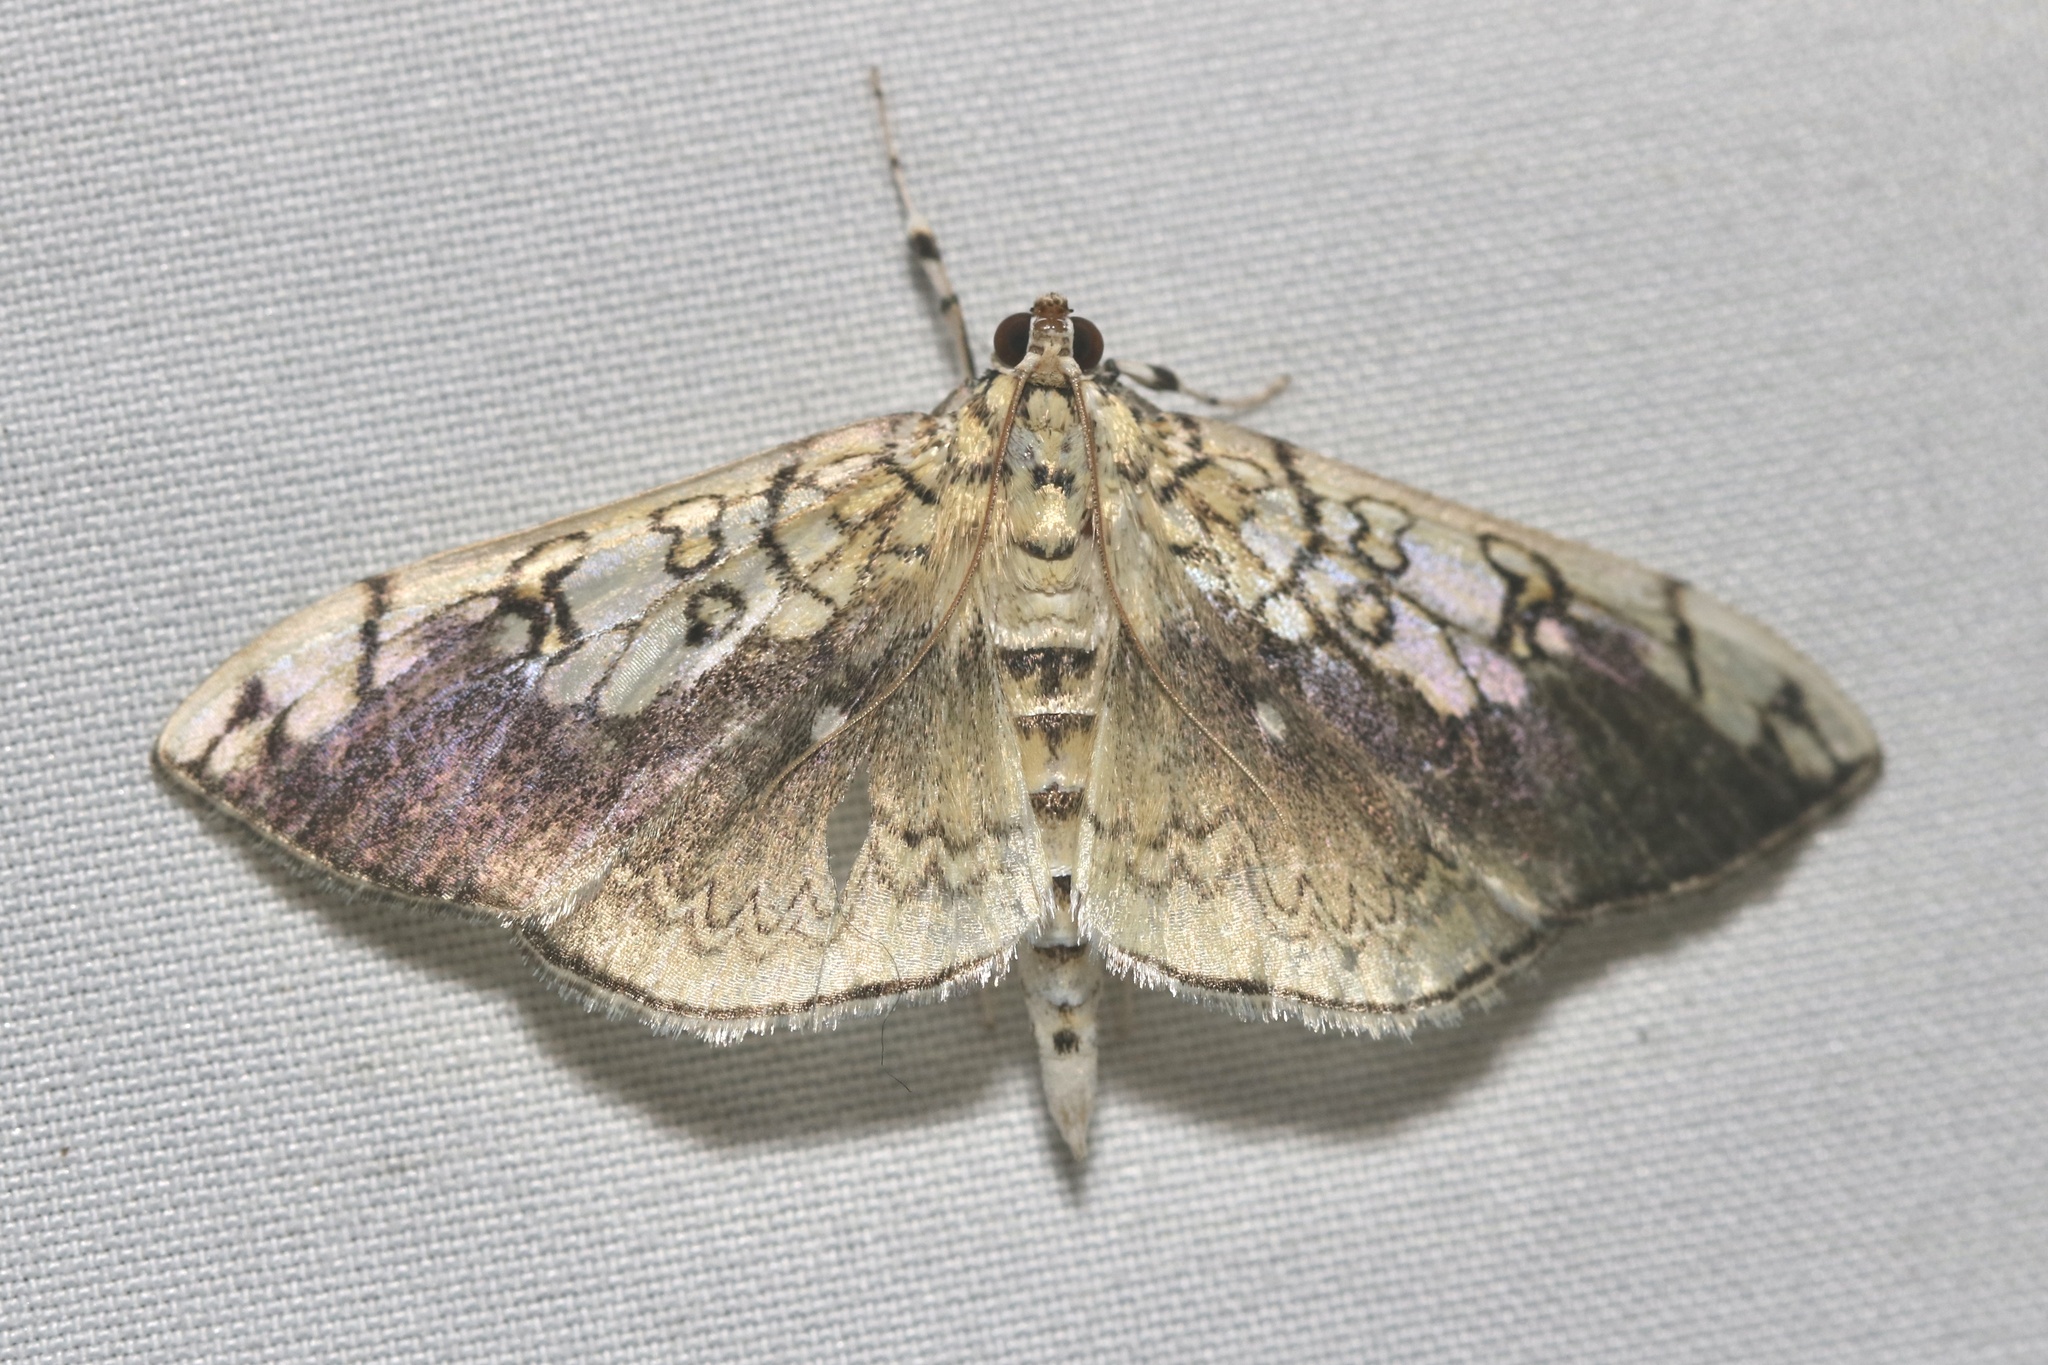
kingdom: Animalia
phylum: Arthropoda
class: Insecta
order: Lepidoptera
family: Crambidae
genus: Pantographa
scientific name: Pantographa limata
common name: Basswood leafroller moth
